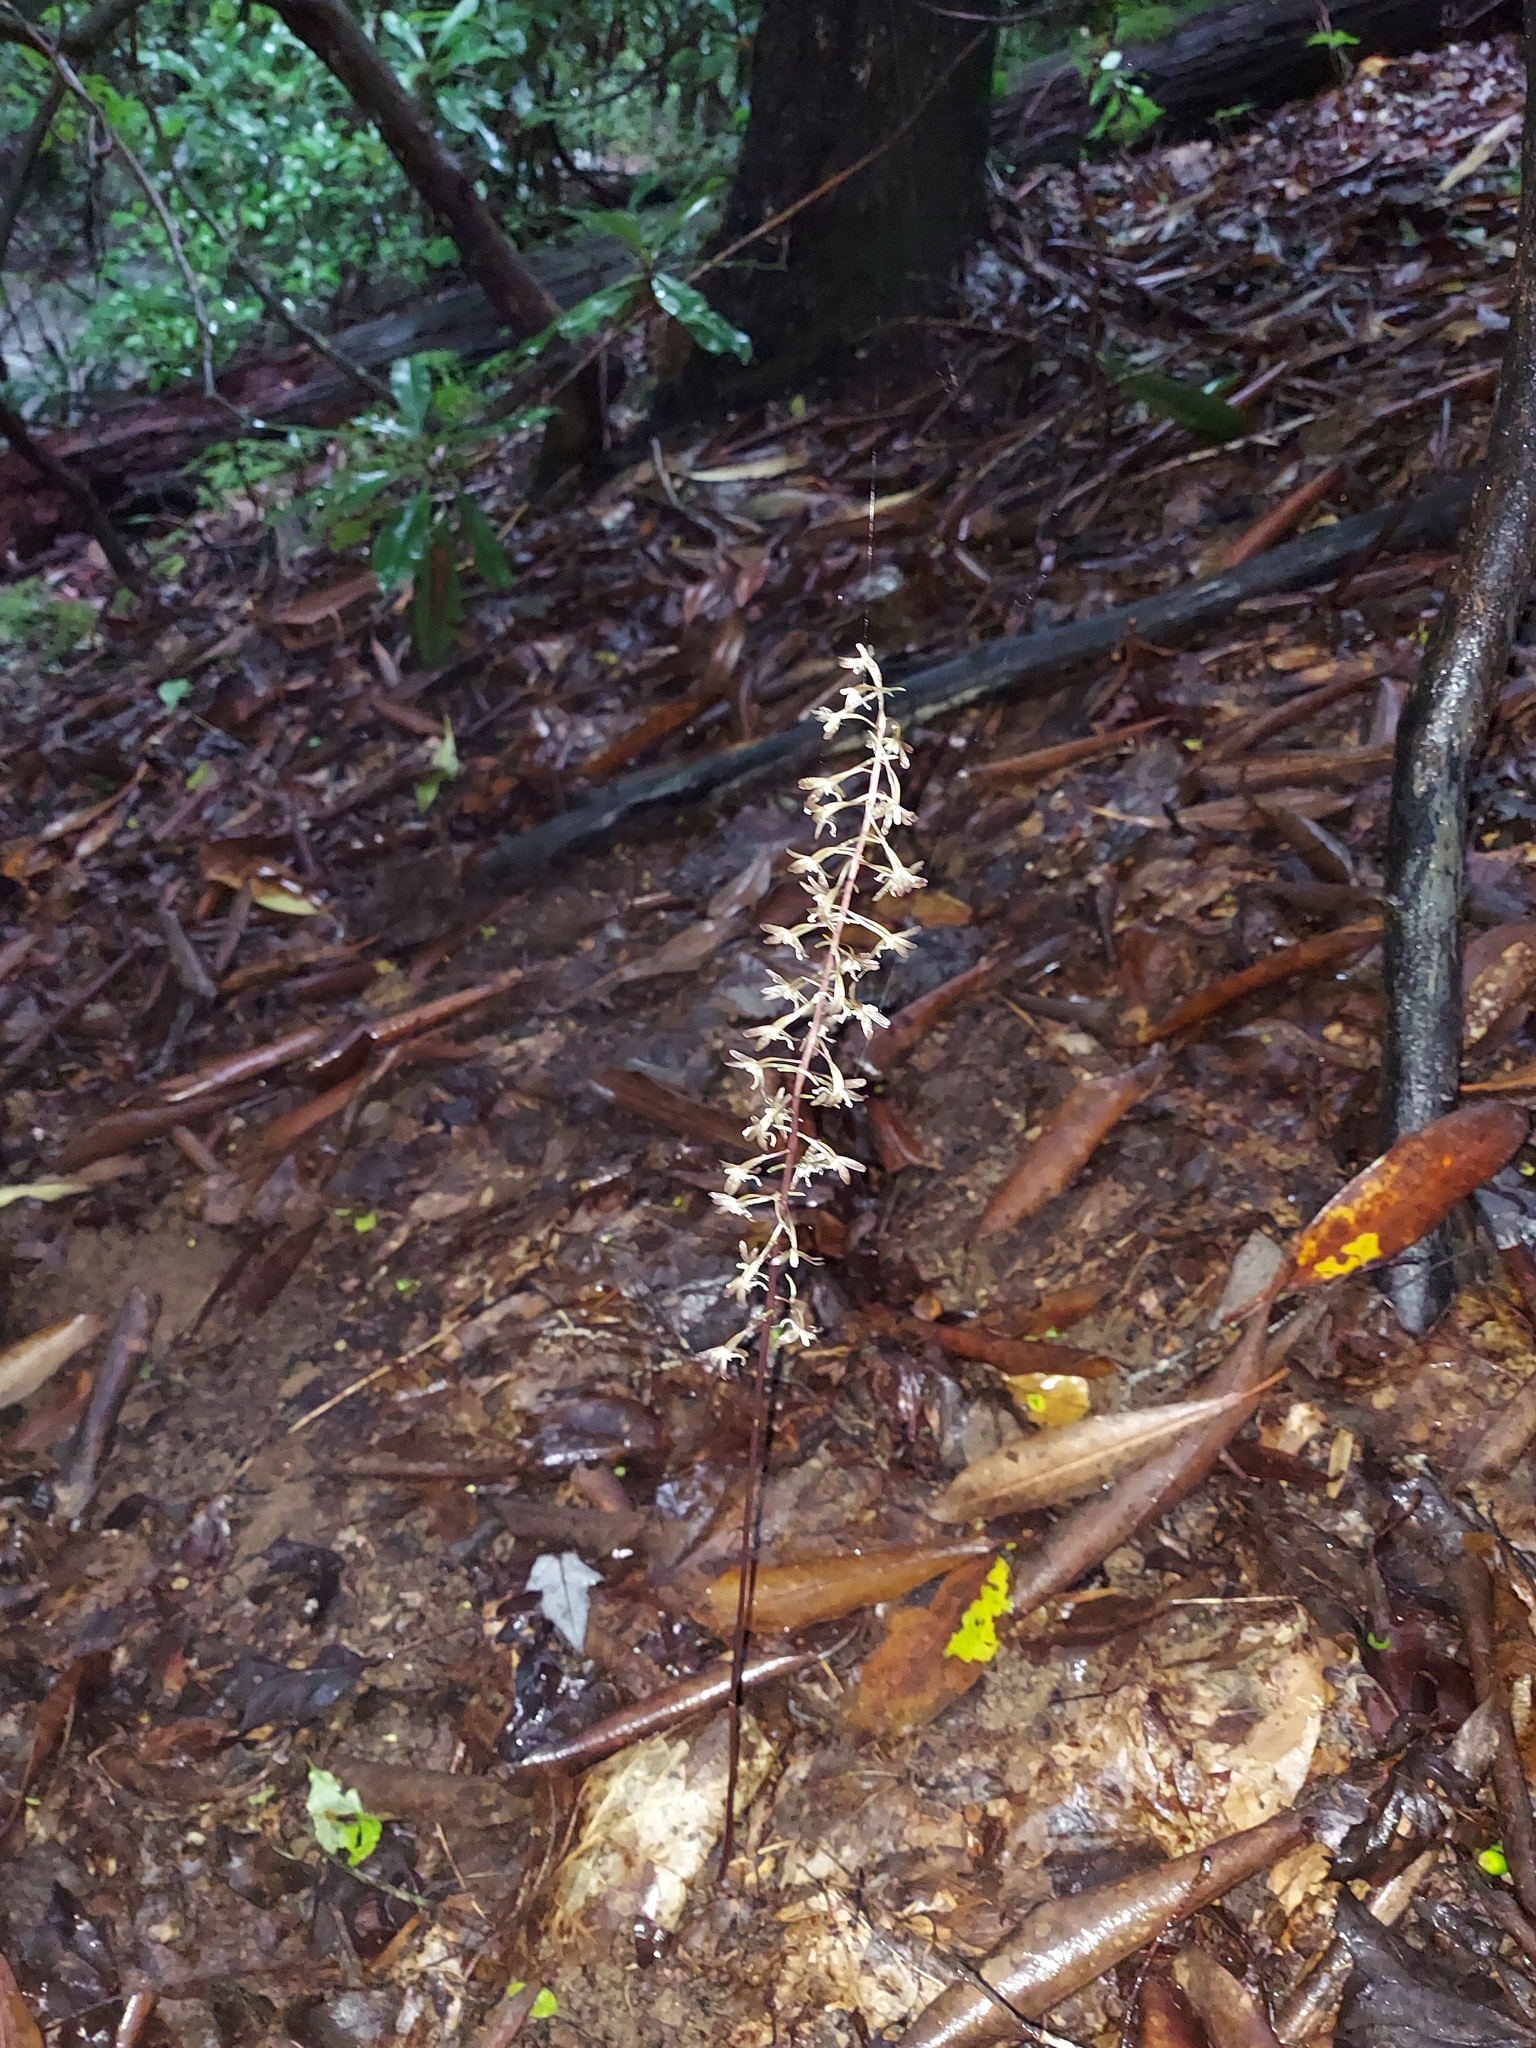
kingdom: Plantae
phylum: Tracheophyta
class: Liliopsida
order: Asparagales
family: Orchidaceae
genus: Tipularia
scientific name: Tipularia discolor
